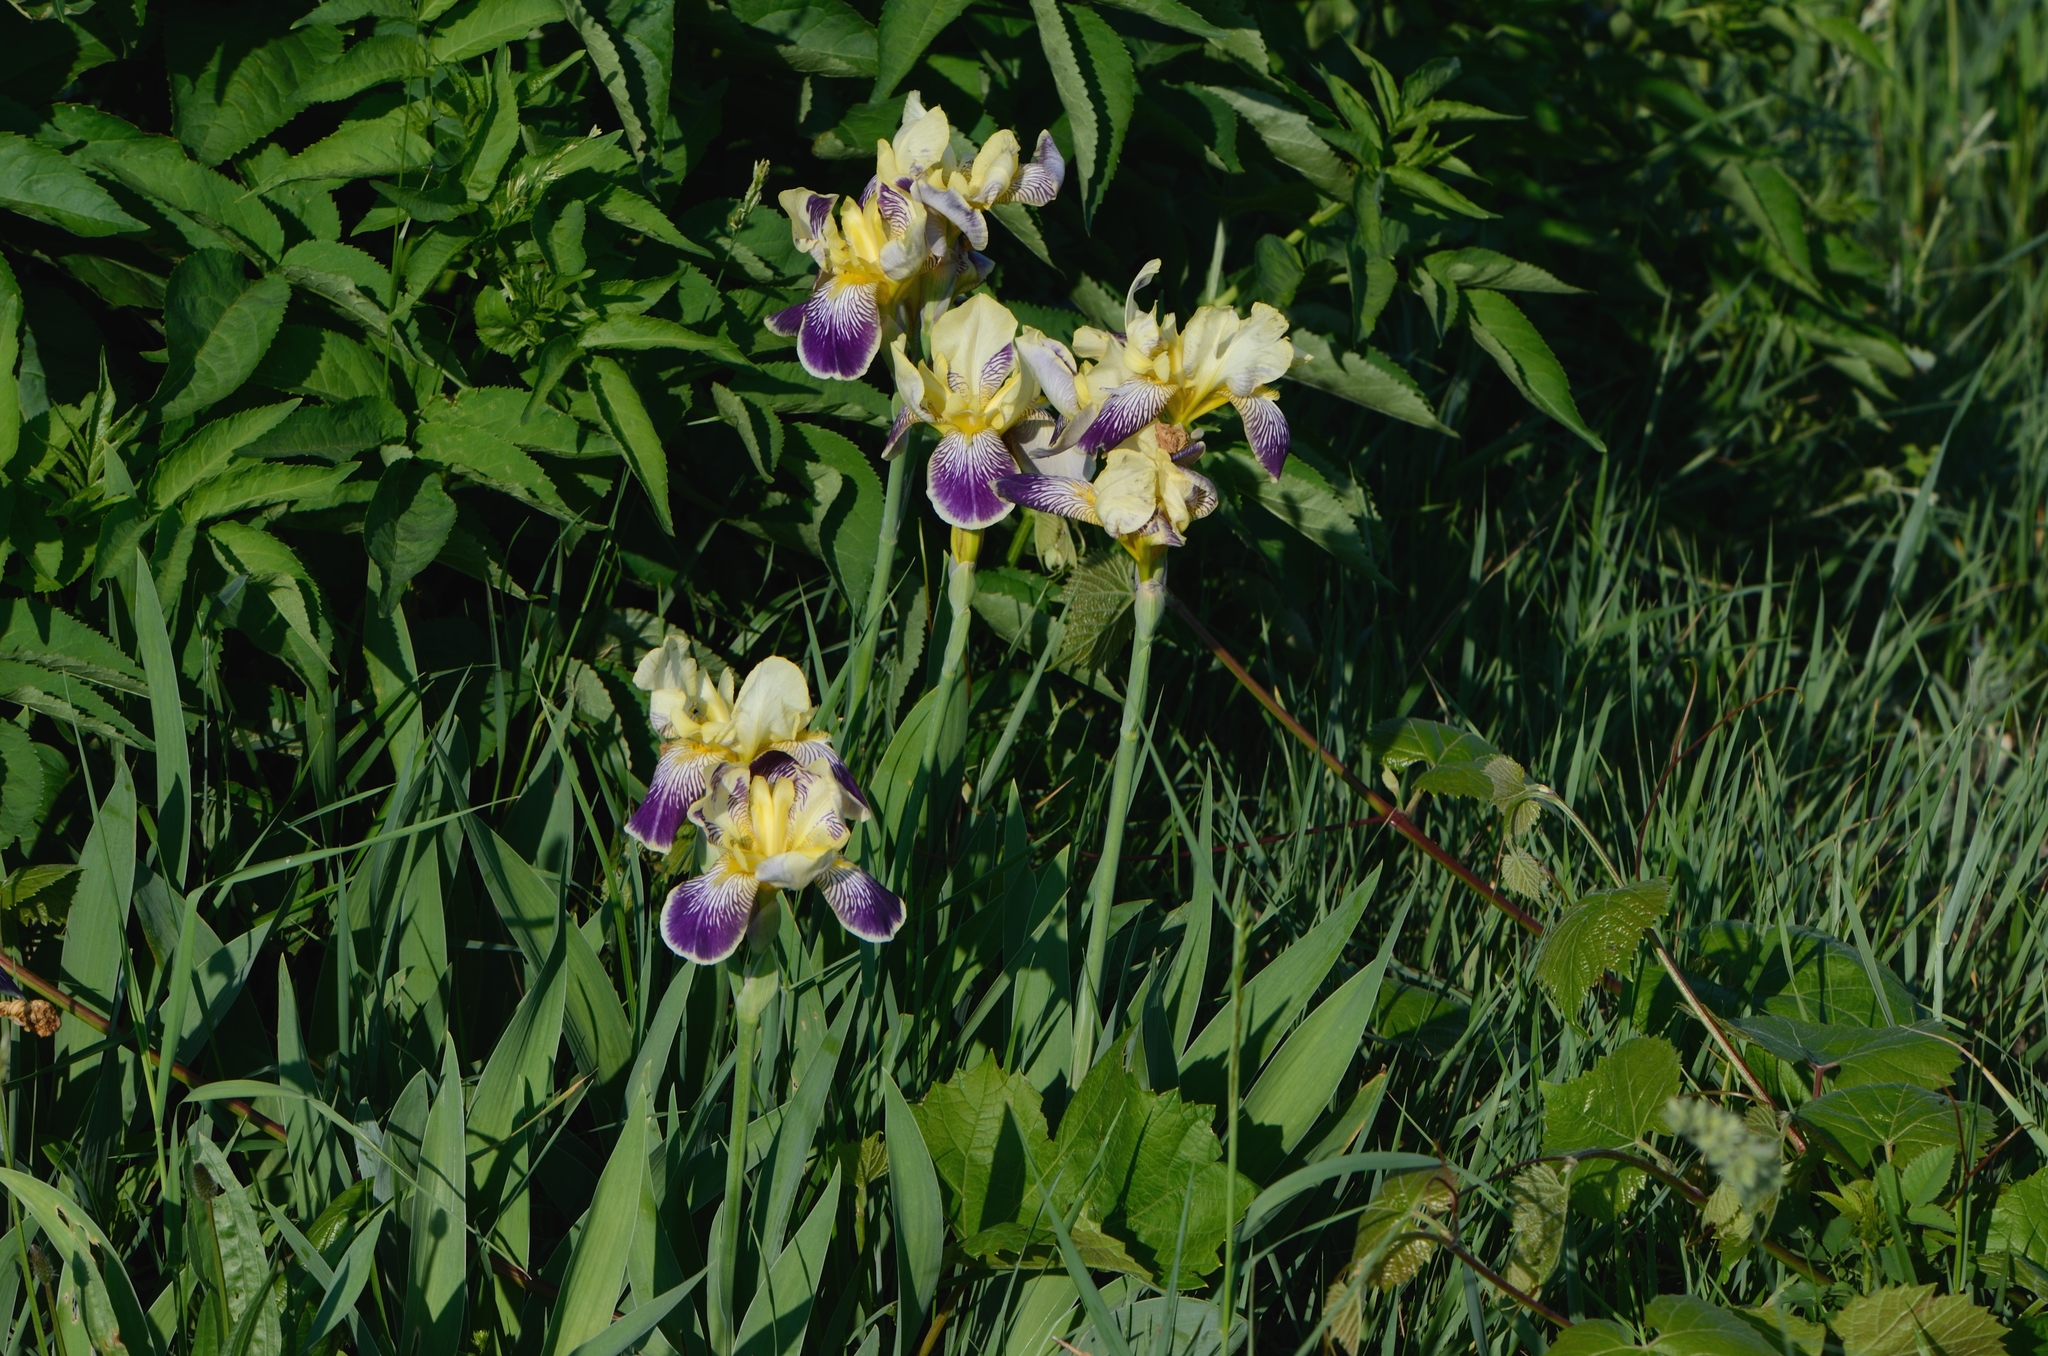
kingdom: Plantae
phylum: Tracheophyta
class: Liliopsida
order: Asparagales
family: Iridaceae
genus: Iris
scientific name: Iris hybrida
